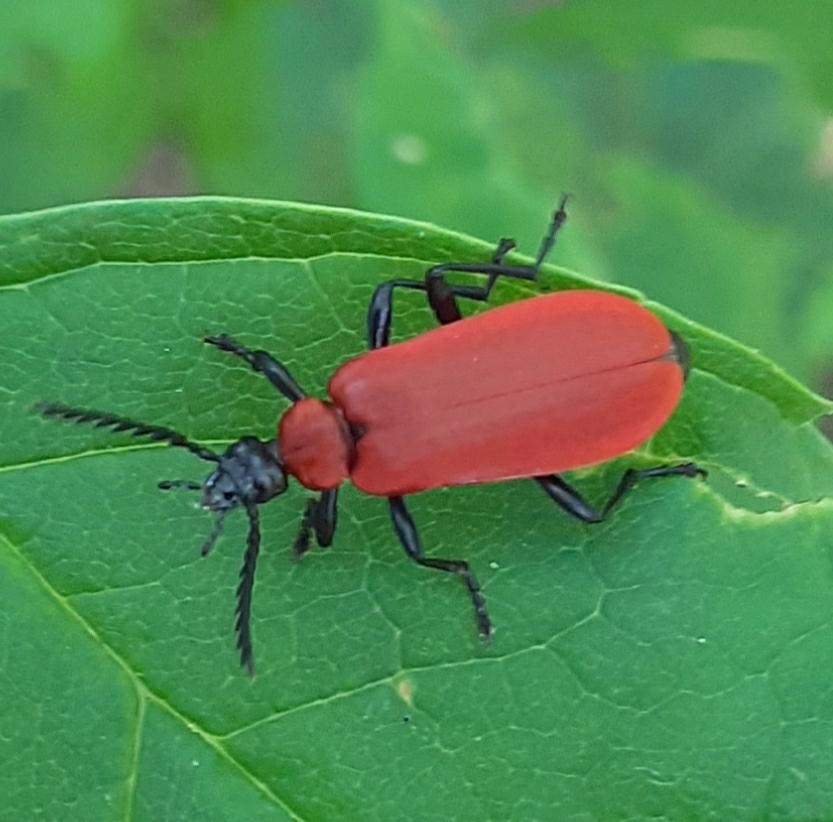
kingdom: Animalia
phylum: Arthropoda
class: Insecta
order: Coleoptera
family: Pyrochroidae
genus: Pyrochroa
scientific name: Pyrochroa coccinea
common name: Black-headed cardinal beetle
